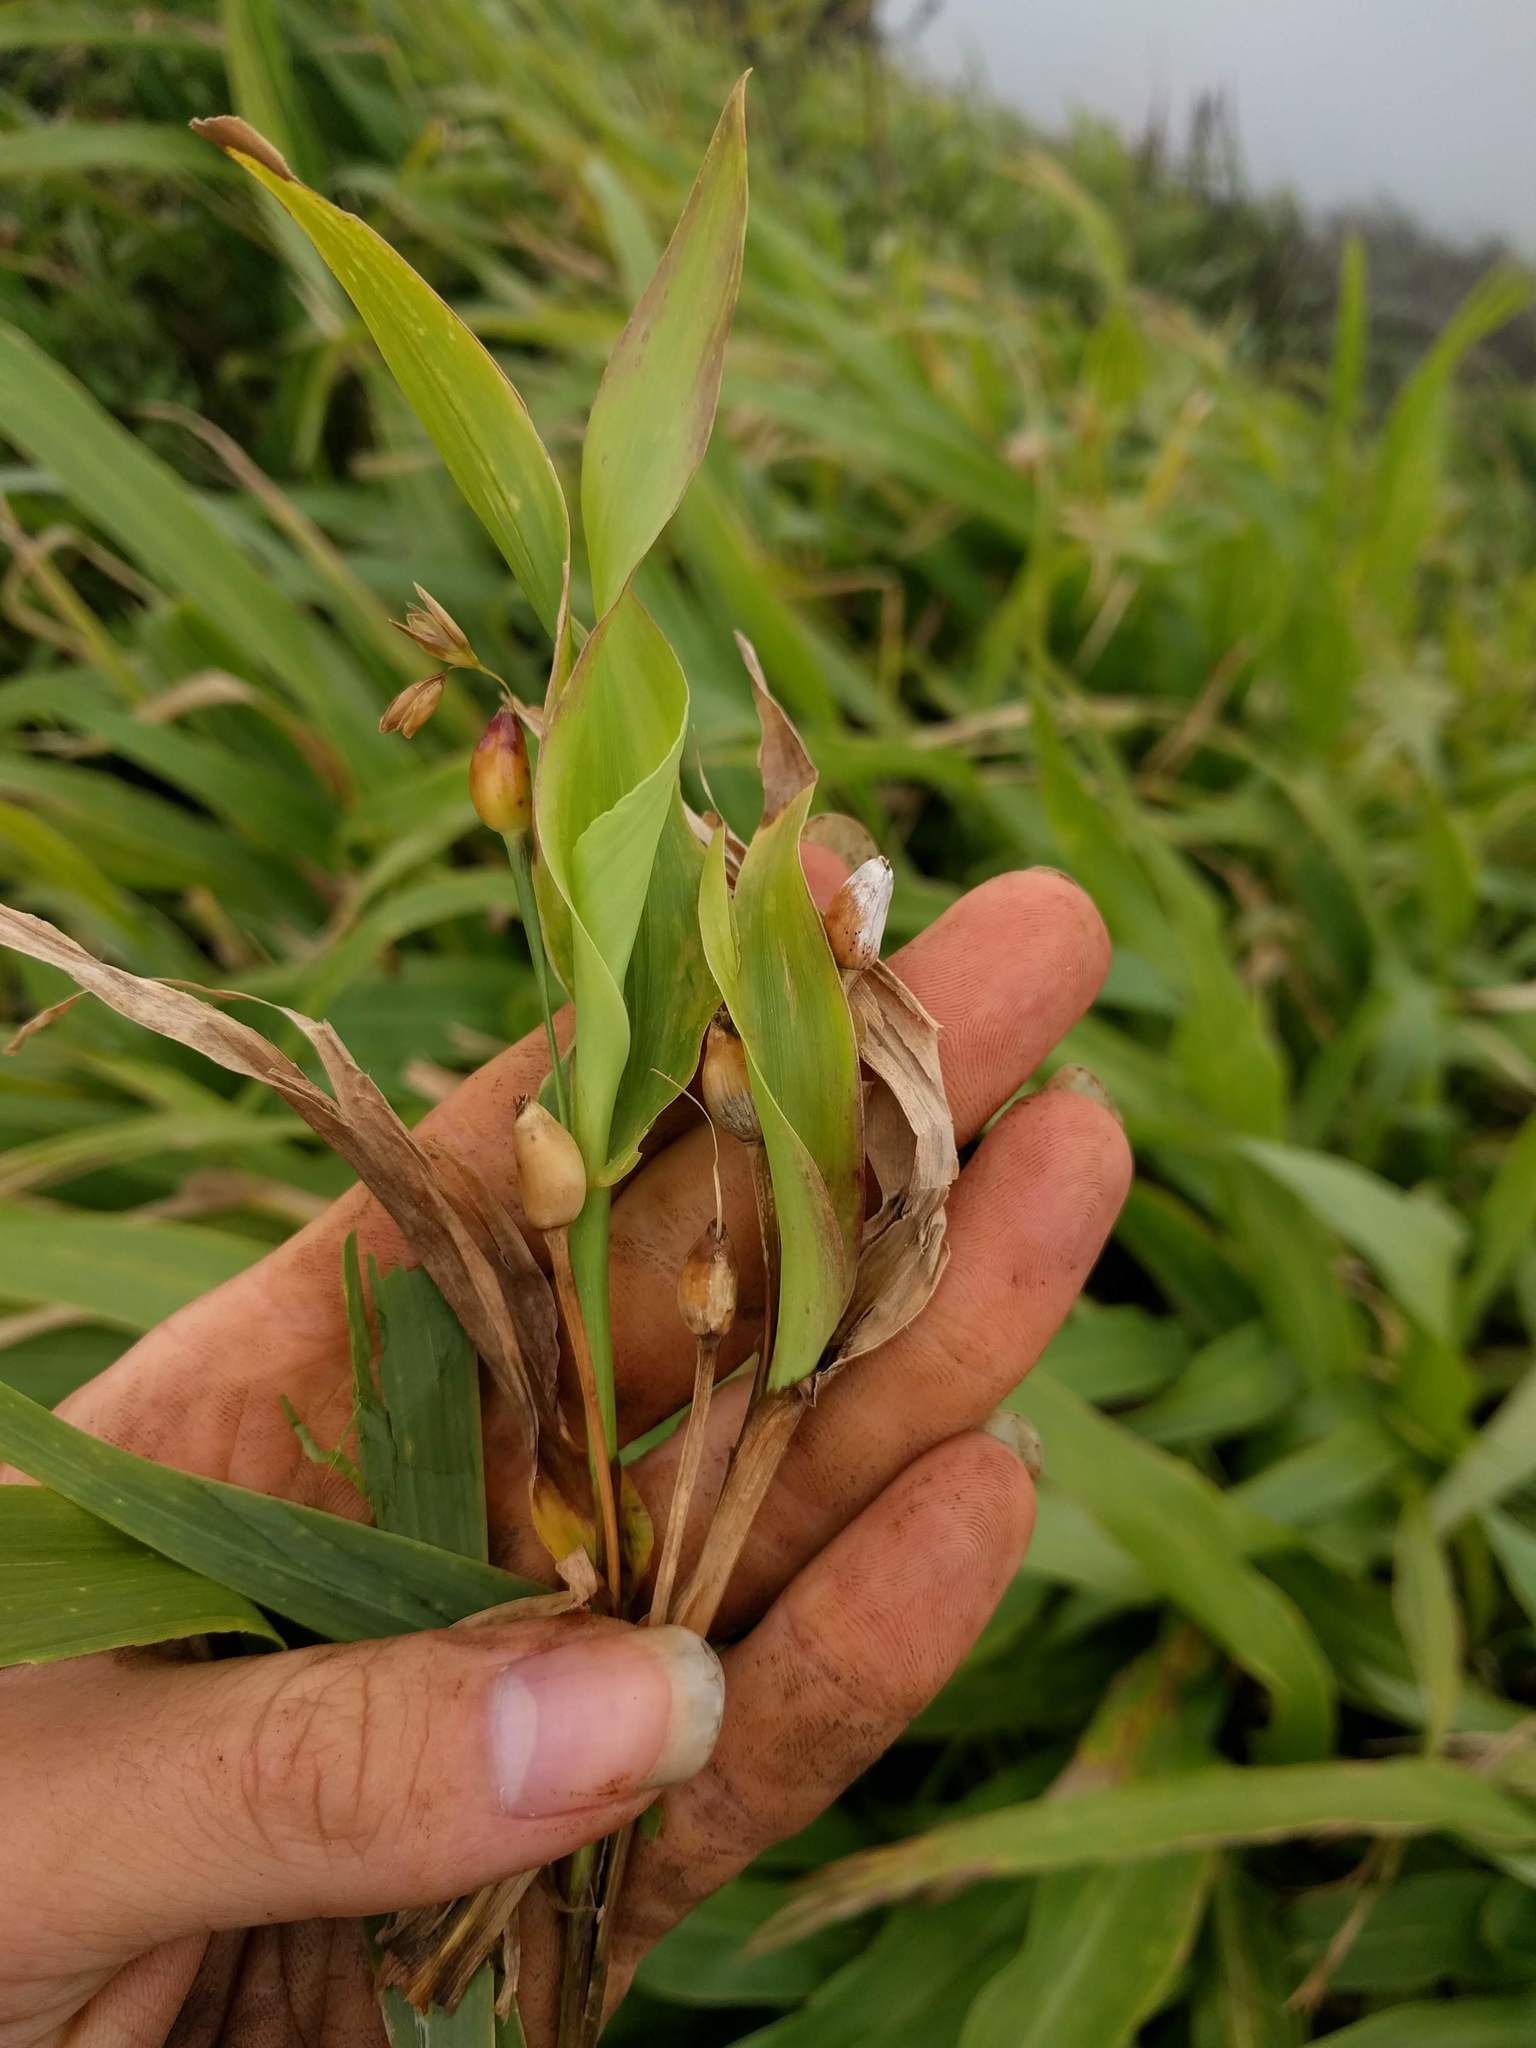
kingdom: Plantae
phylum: Tracheophyta
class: Liliopsida
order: Poales
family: Poaceae
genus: Coix
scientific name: Coix lacryma-jobi
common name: Job's tears
